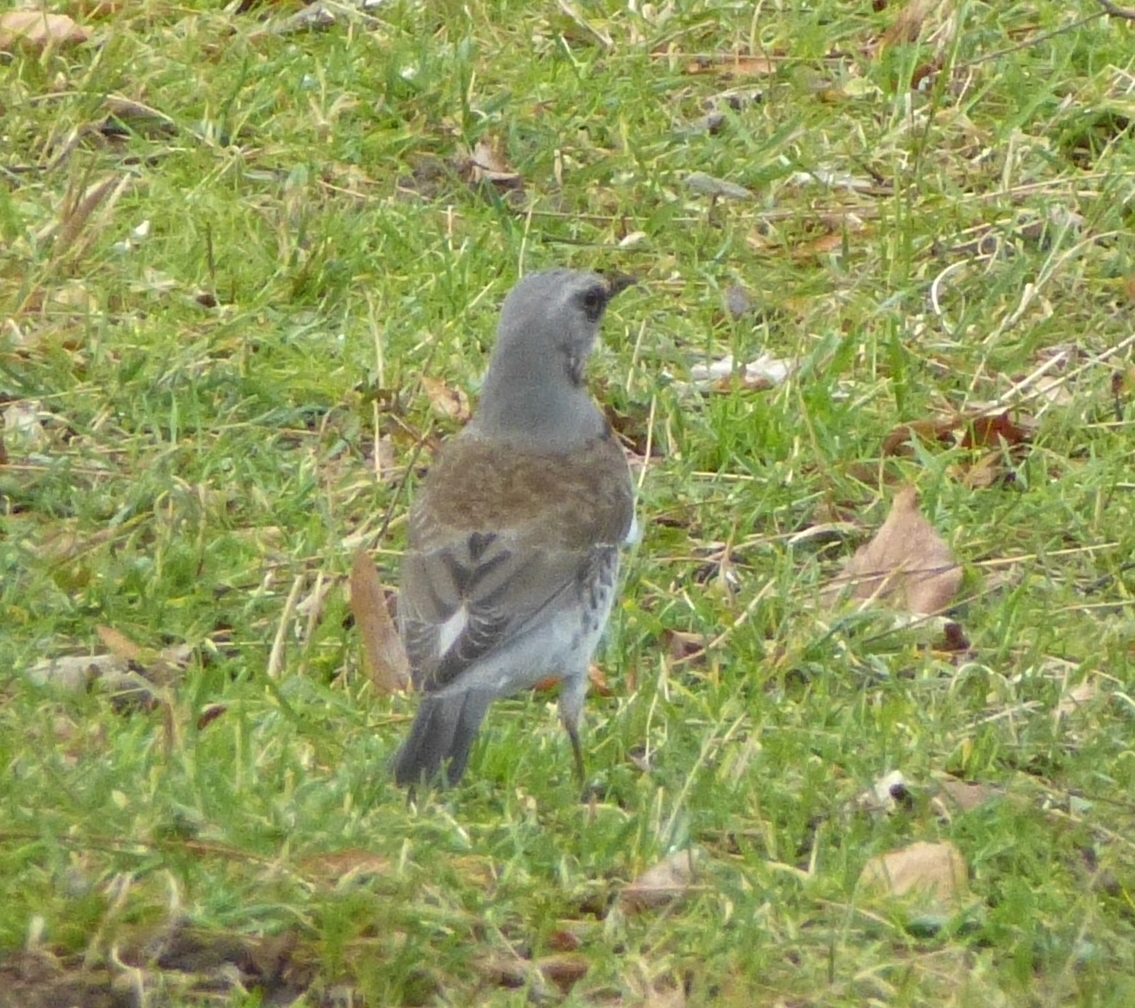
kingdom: Animalia
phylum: Chordata
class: Aves
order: Passeriformes
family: Turdidae
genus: Turdus
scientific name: Turdus pilaris
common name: Fieldfare
